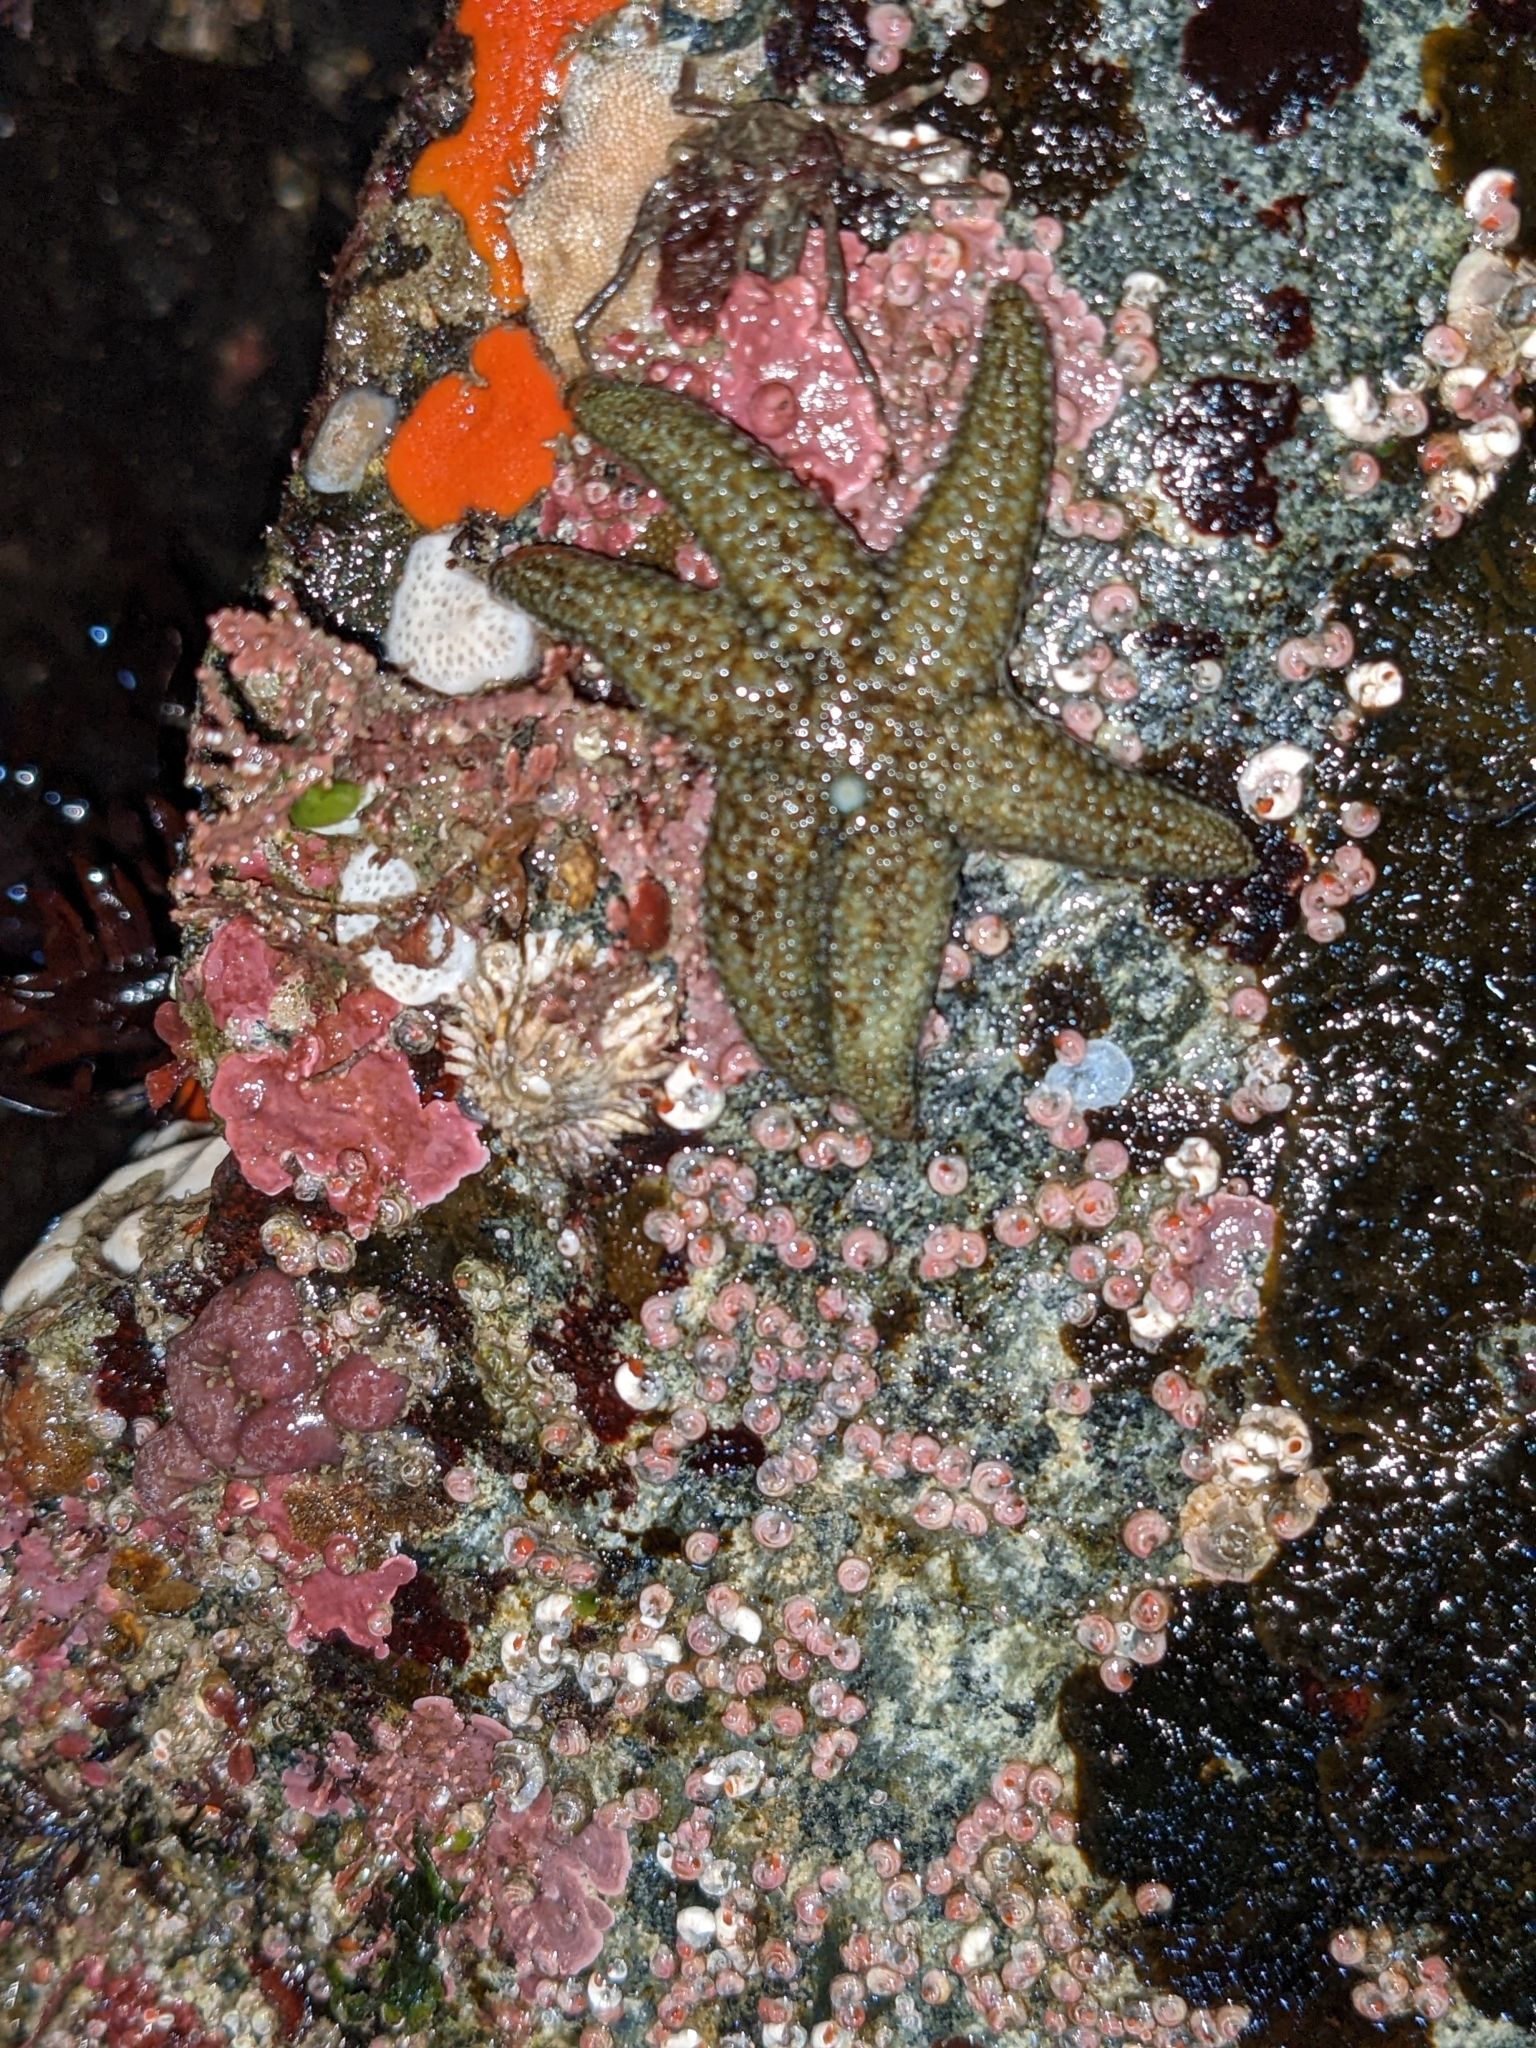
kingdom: Animalia
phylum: Echinodermata
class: Asteroidea
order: Forcipulatida
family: Asteriidae
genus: Leptasterias
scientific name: Leptasterias hexactis
